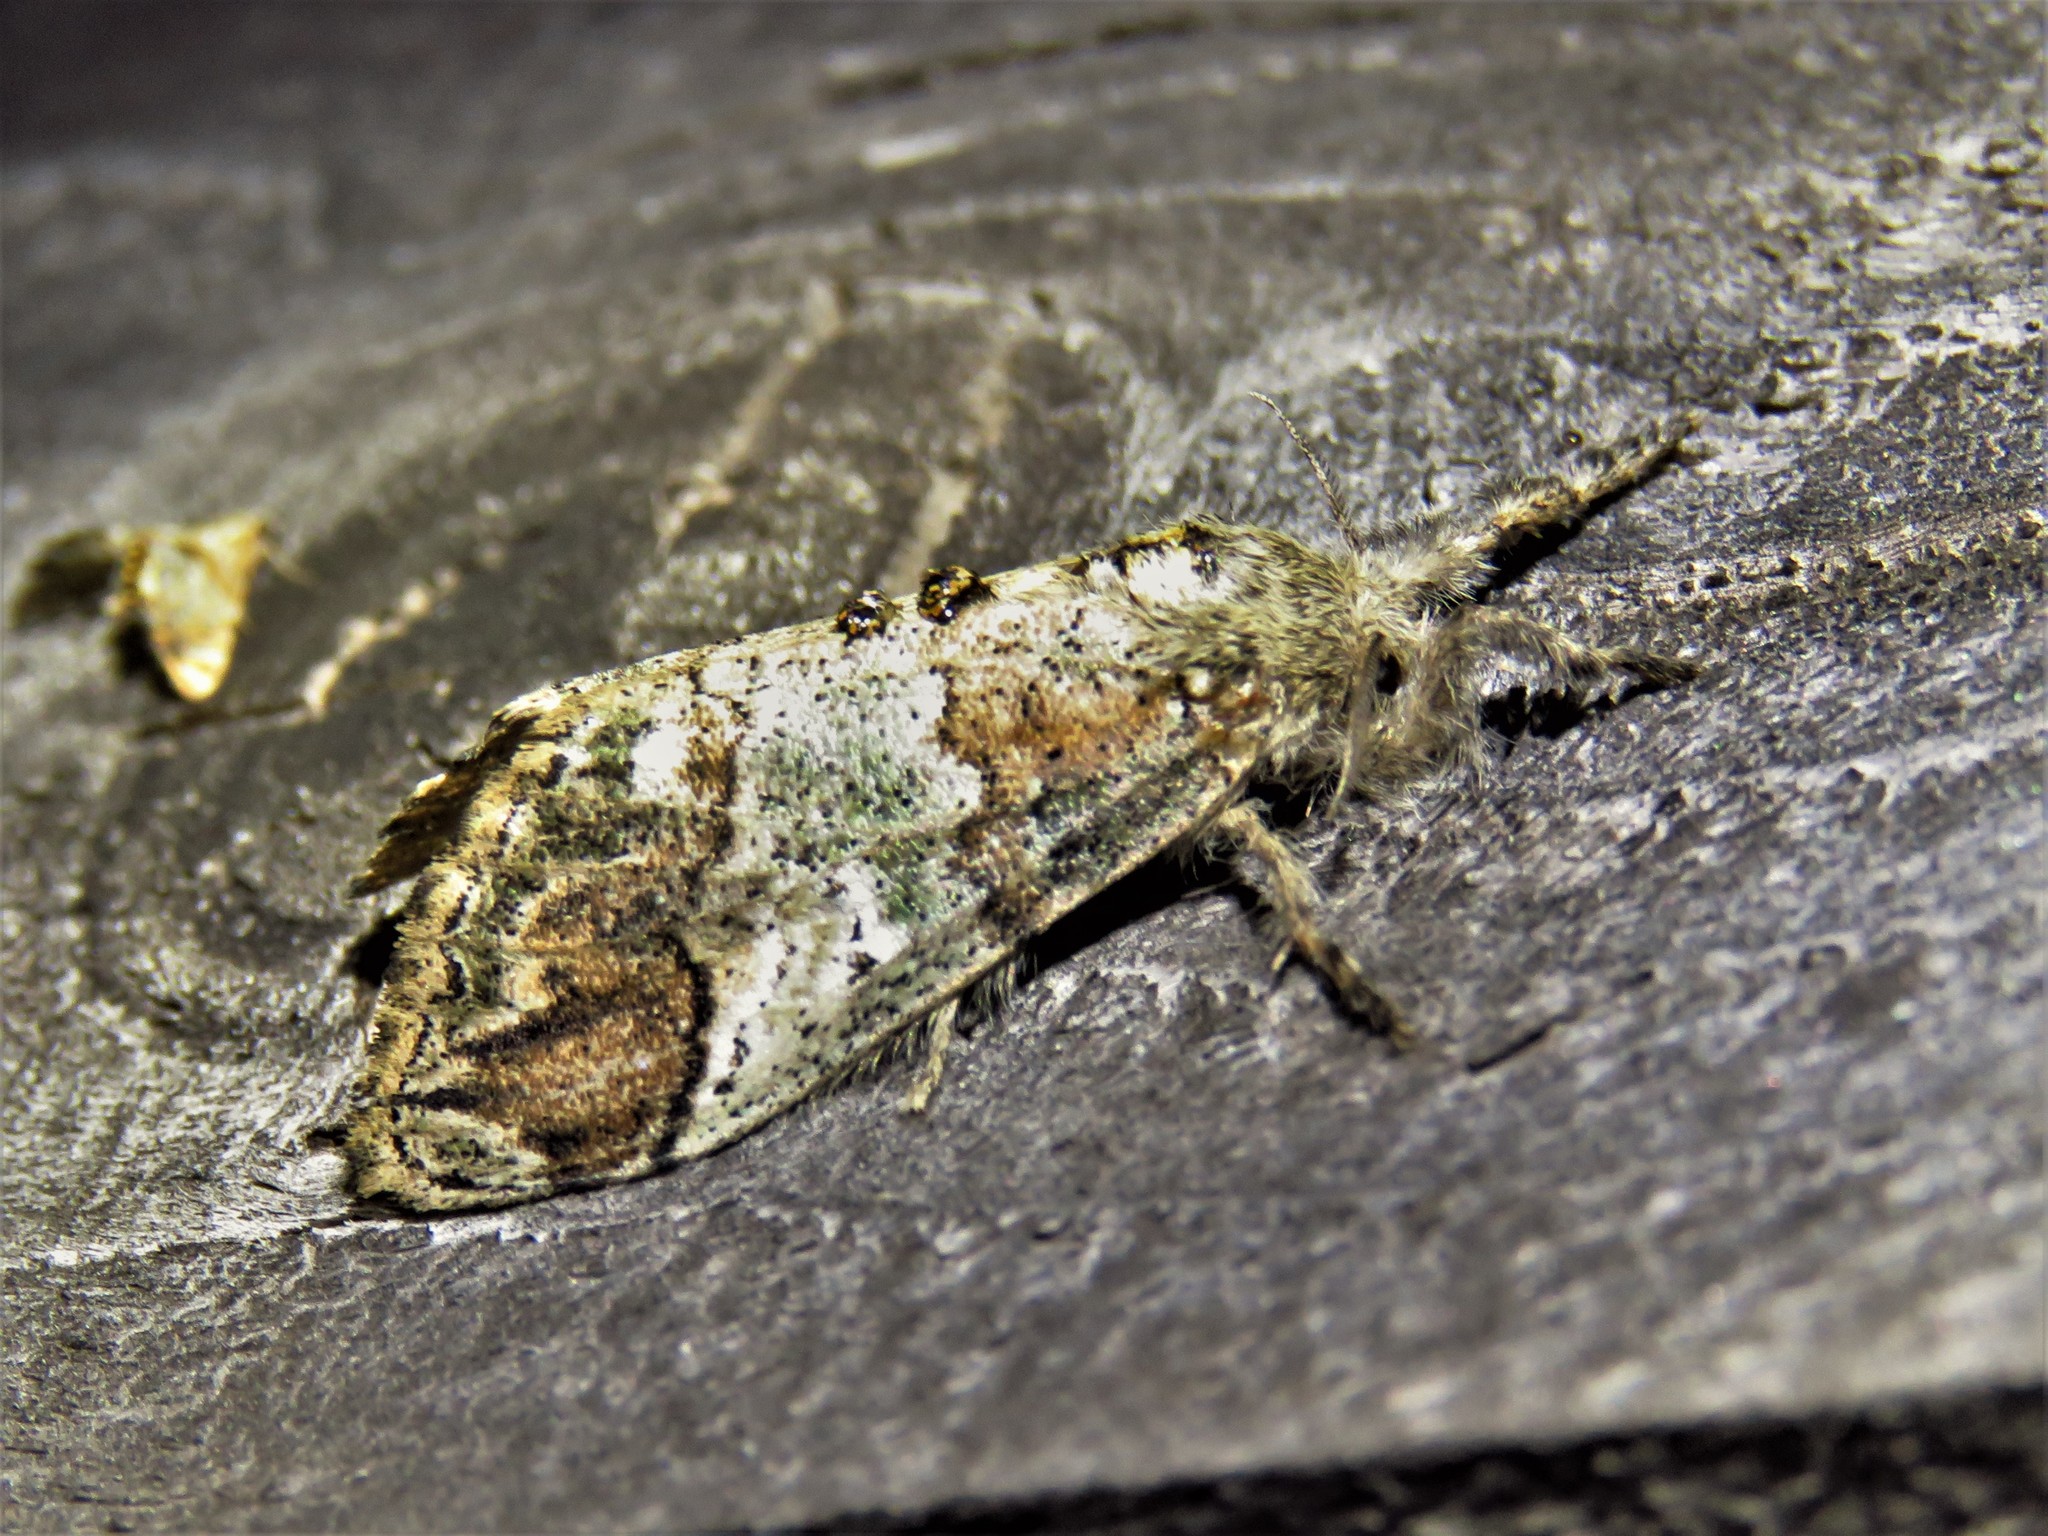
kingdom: Animalia
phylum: Arthropoda
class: Insecta
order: Lepidoptera
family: Erebidae
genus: Dasychira
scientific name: Dasychira meridionalis
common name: Southern tussock moth
